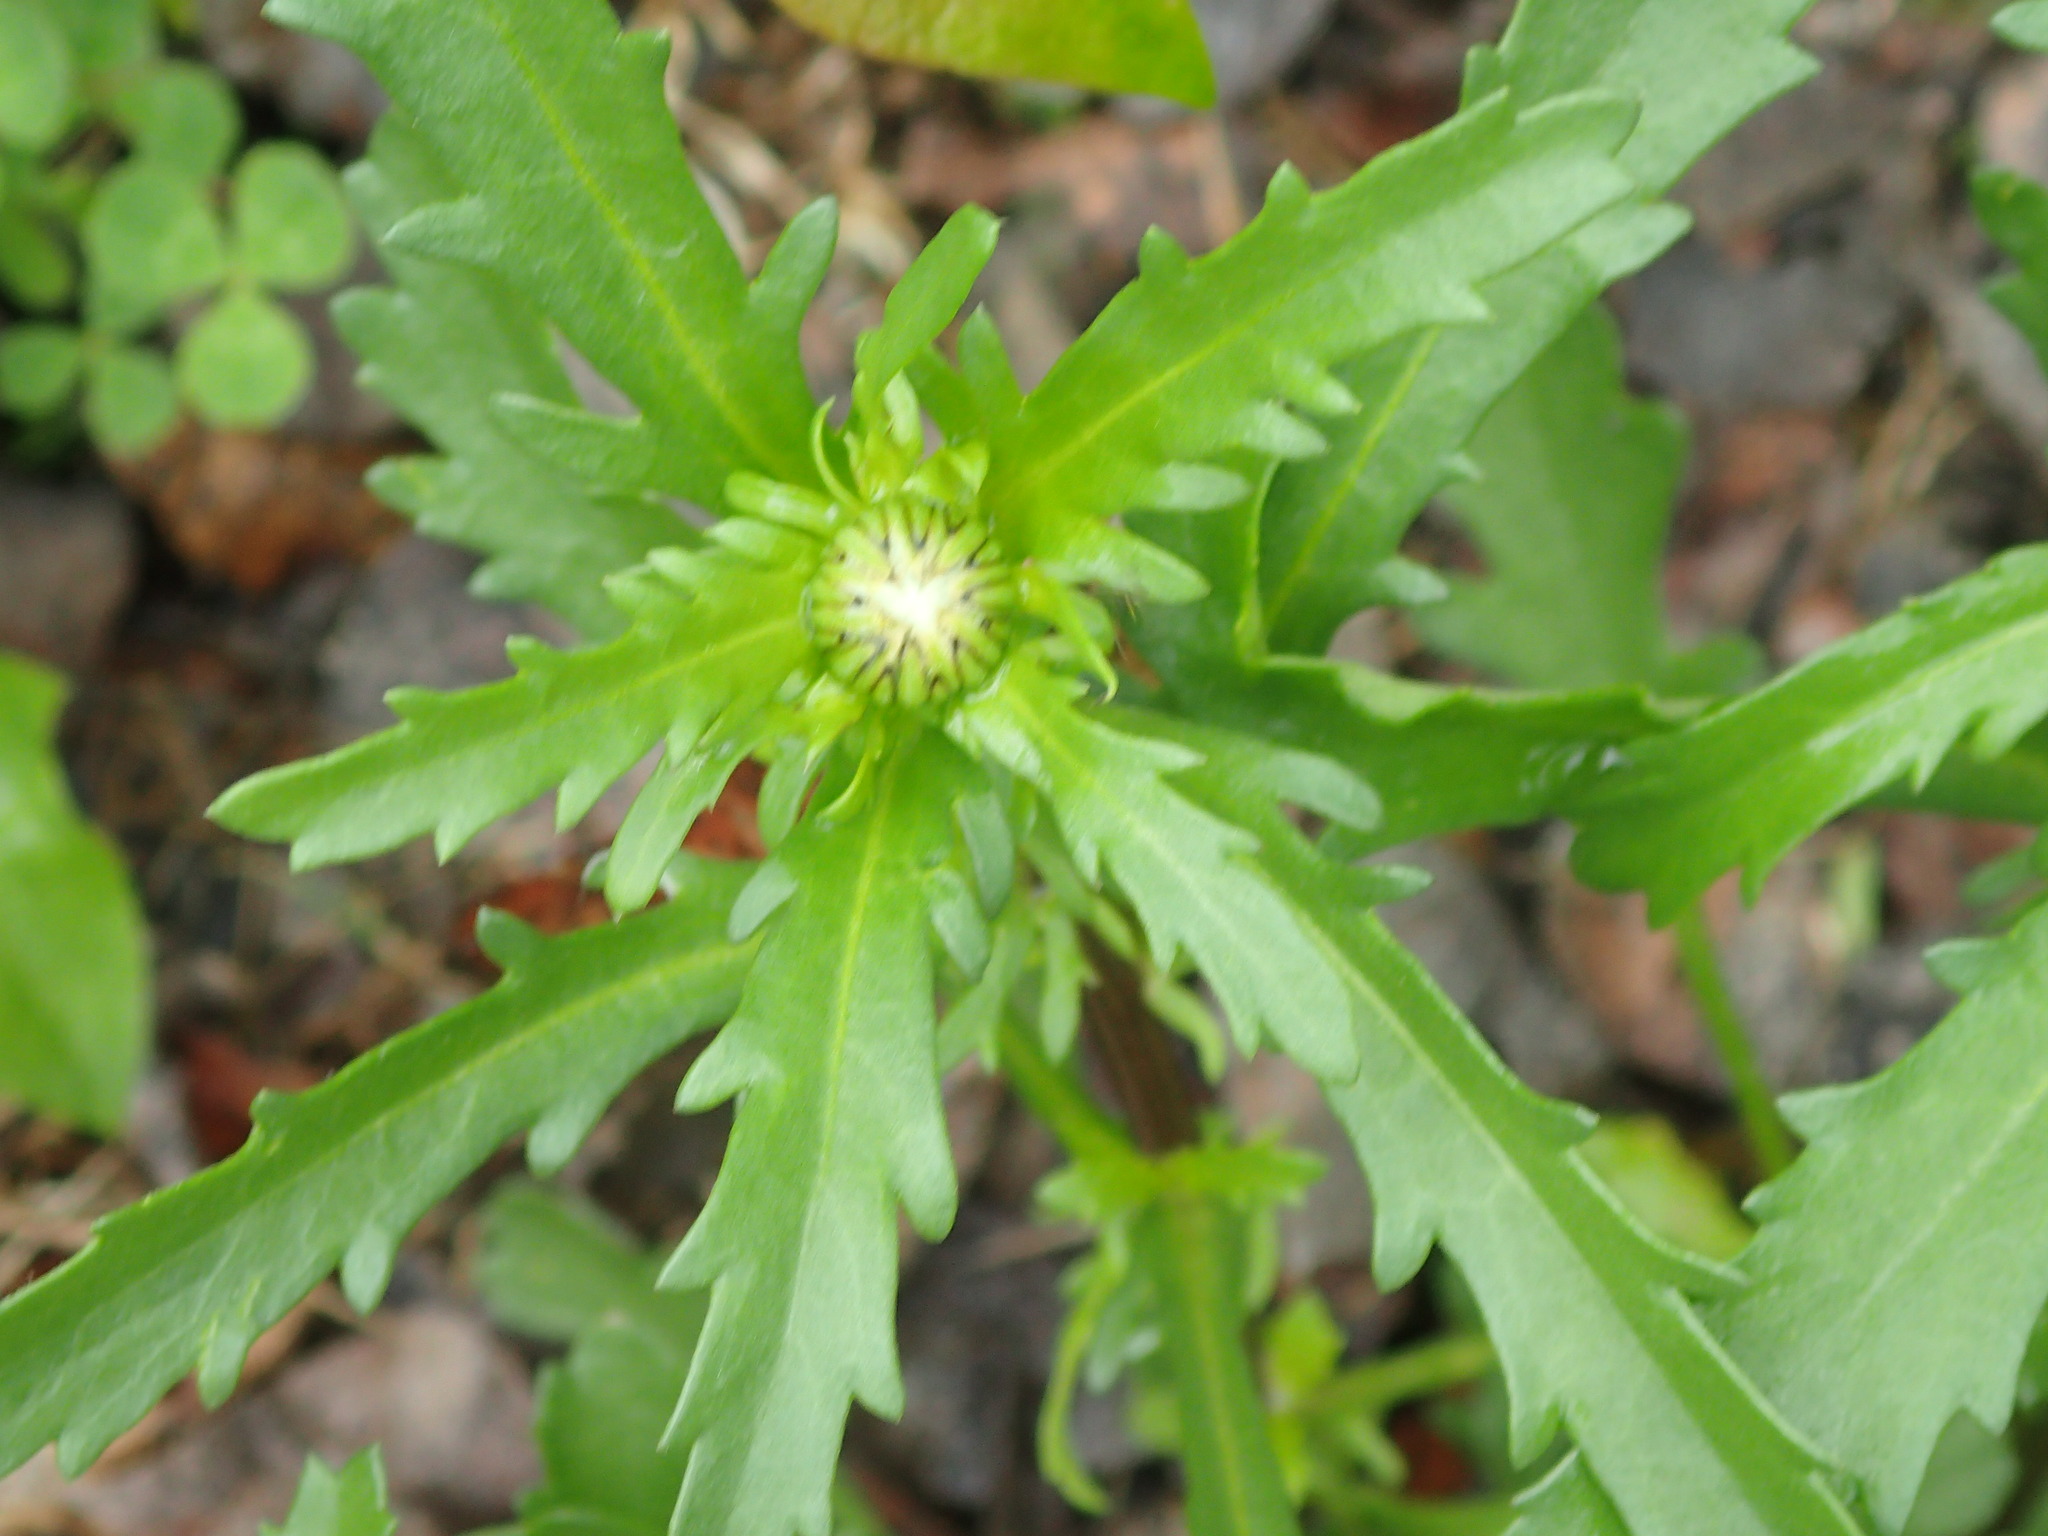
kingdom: Plantae
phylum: Tracheophyta
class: Magnoliopsida
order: Asterales
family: Asteraceae
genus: Leucanthemum
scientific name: Leucanthemum vulgare
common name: Oxeye daisy
